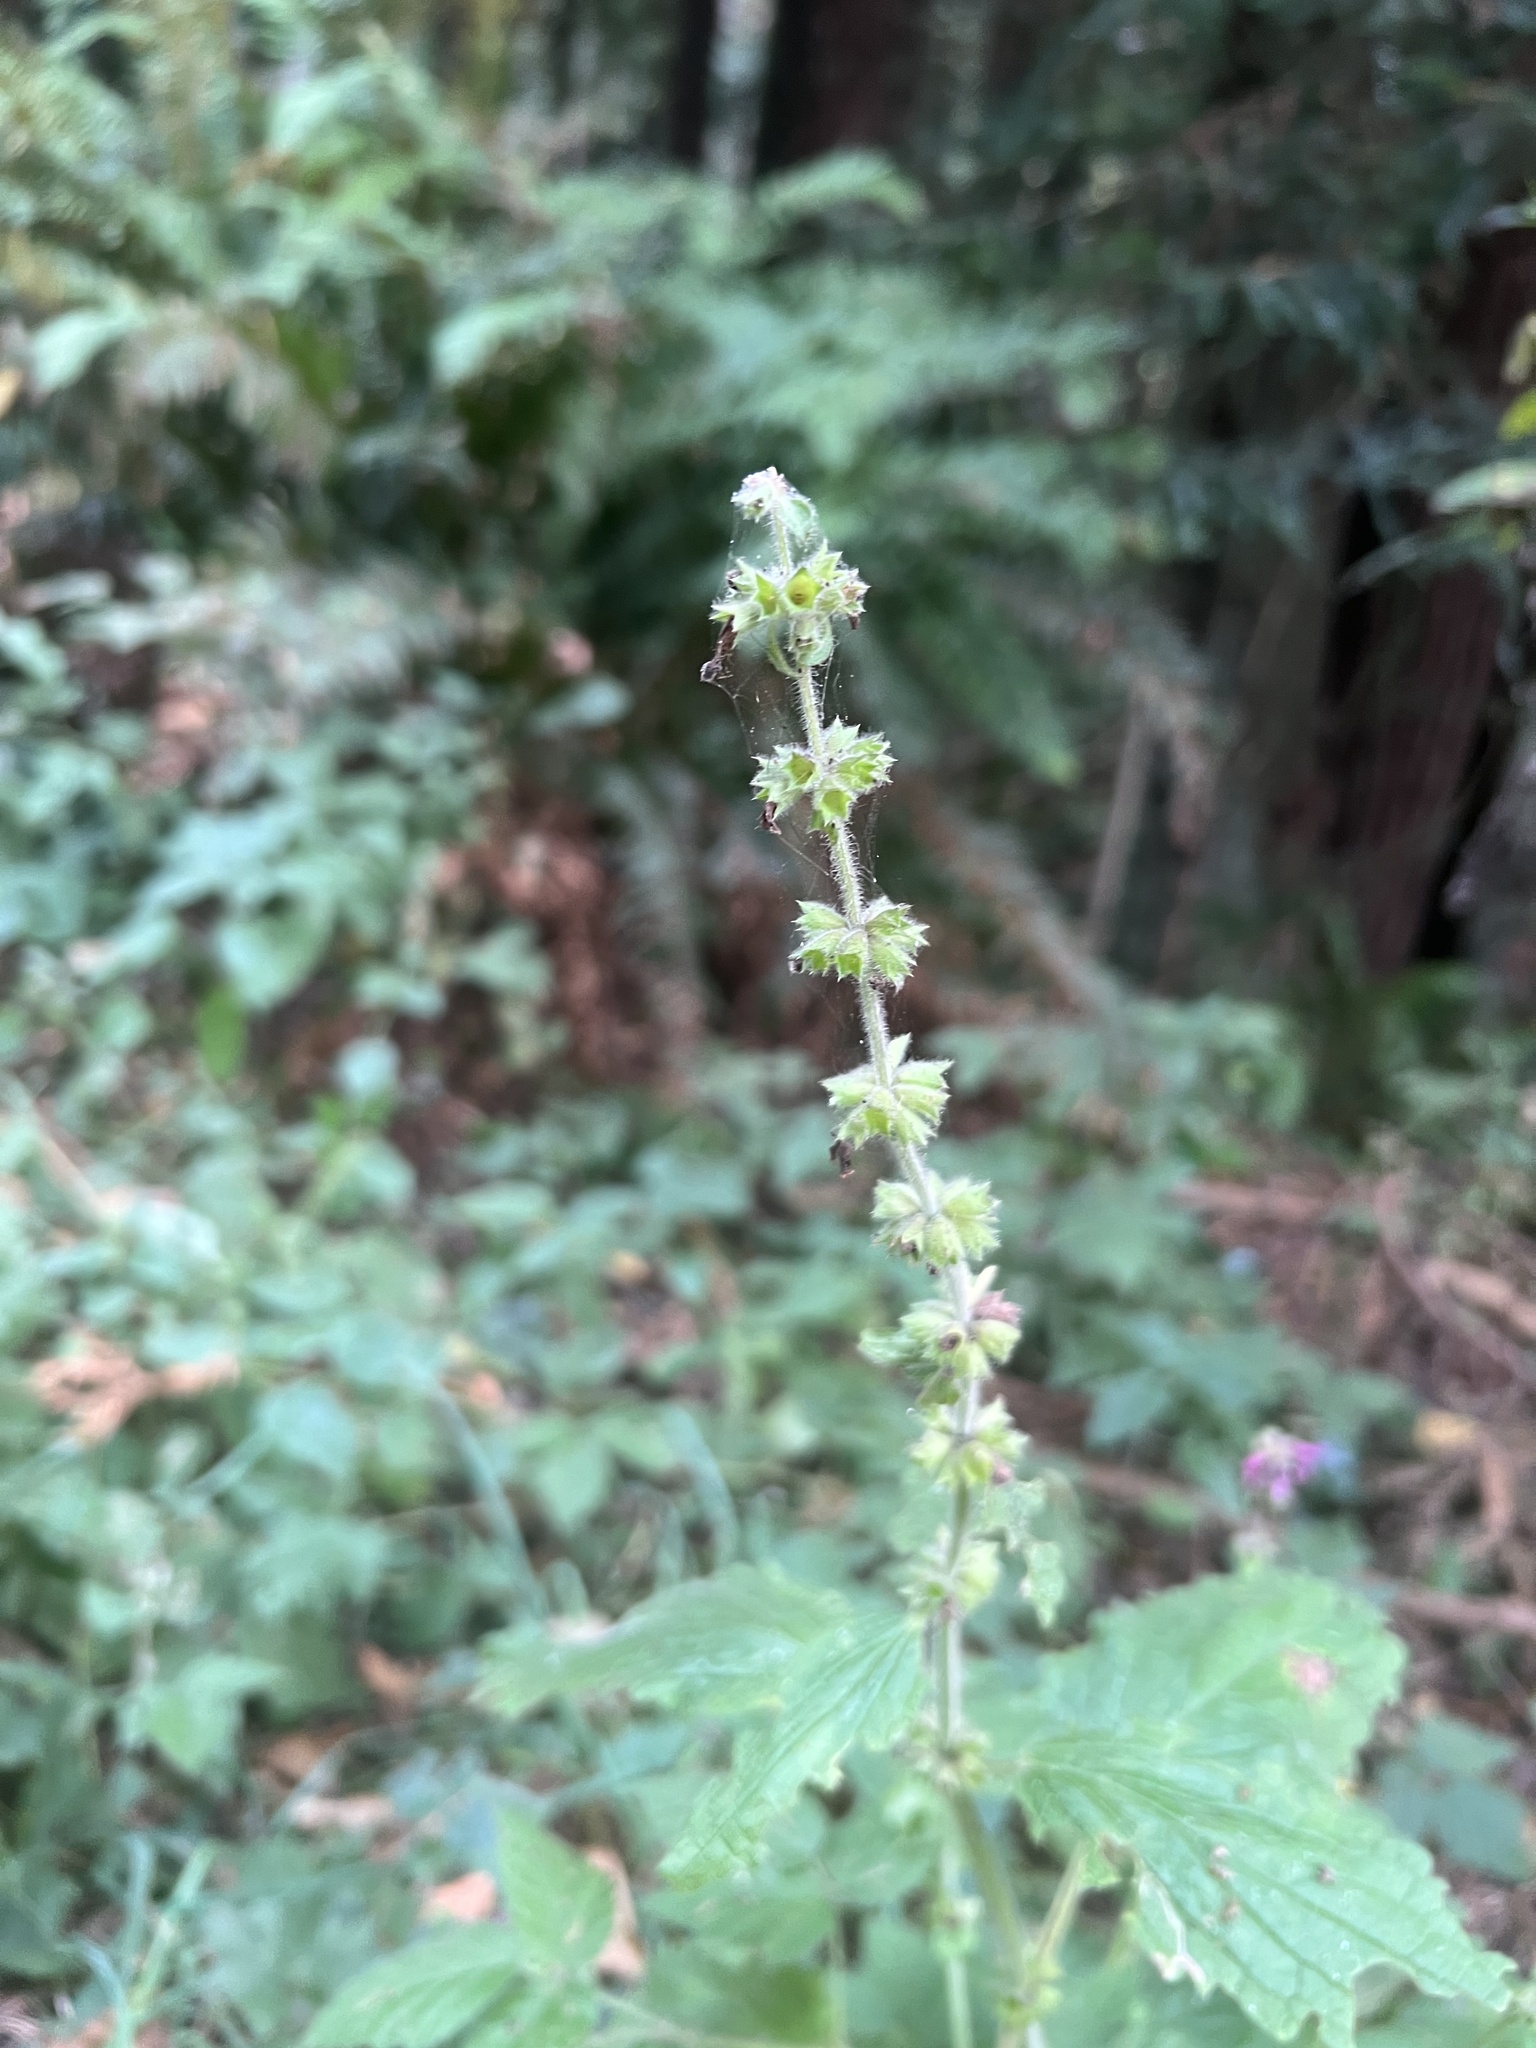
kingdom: Plantae
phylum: Tracheophyta
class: Magnoliopsida
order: Lamiales
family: Lamiaceae
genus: Stachys
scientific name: Stachys bullata
